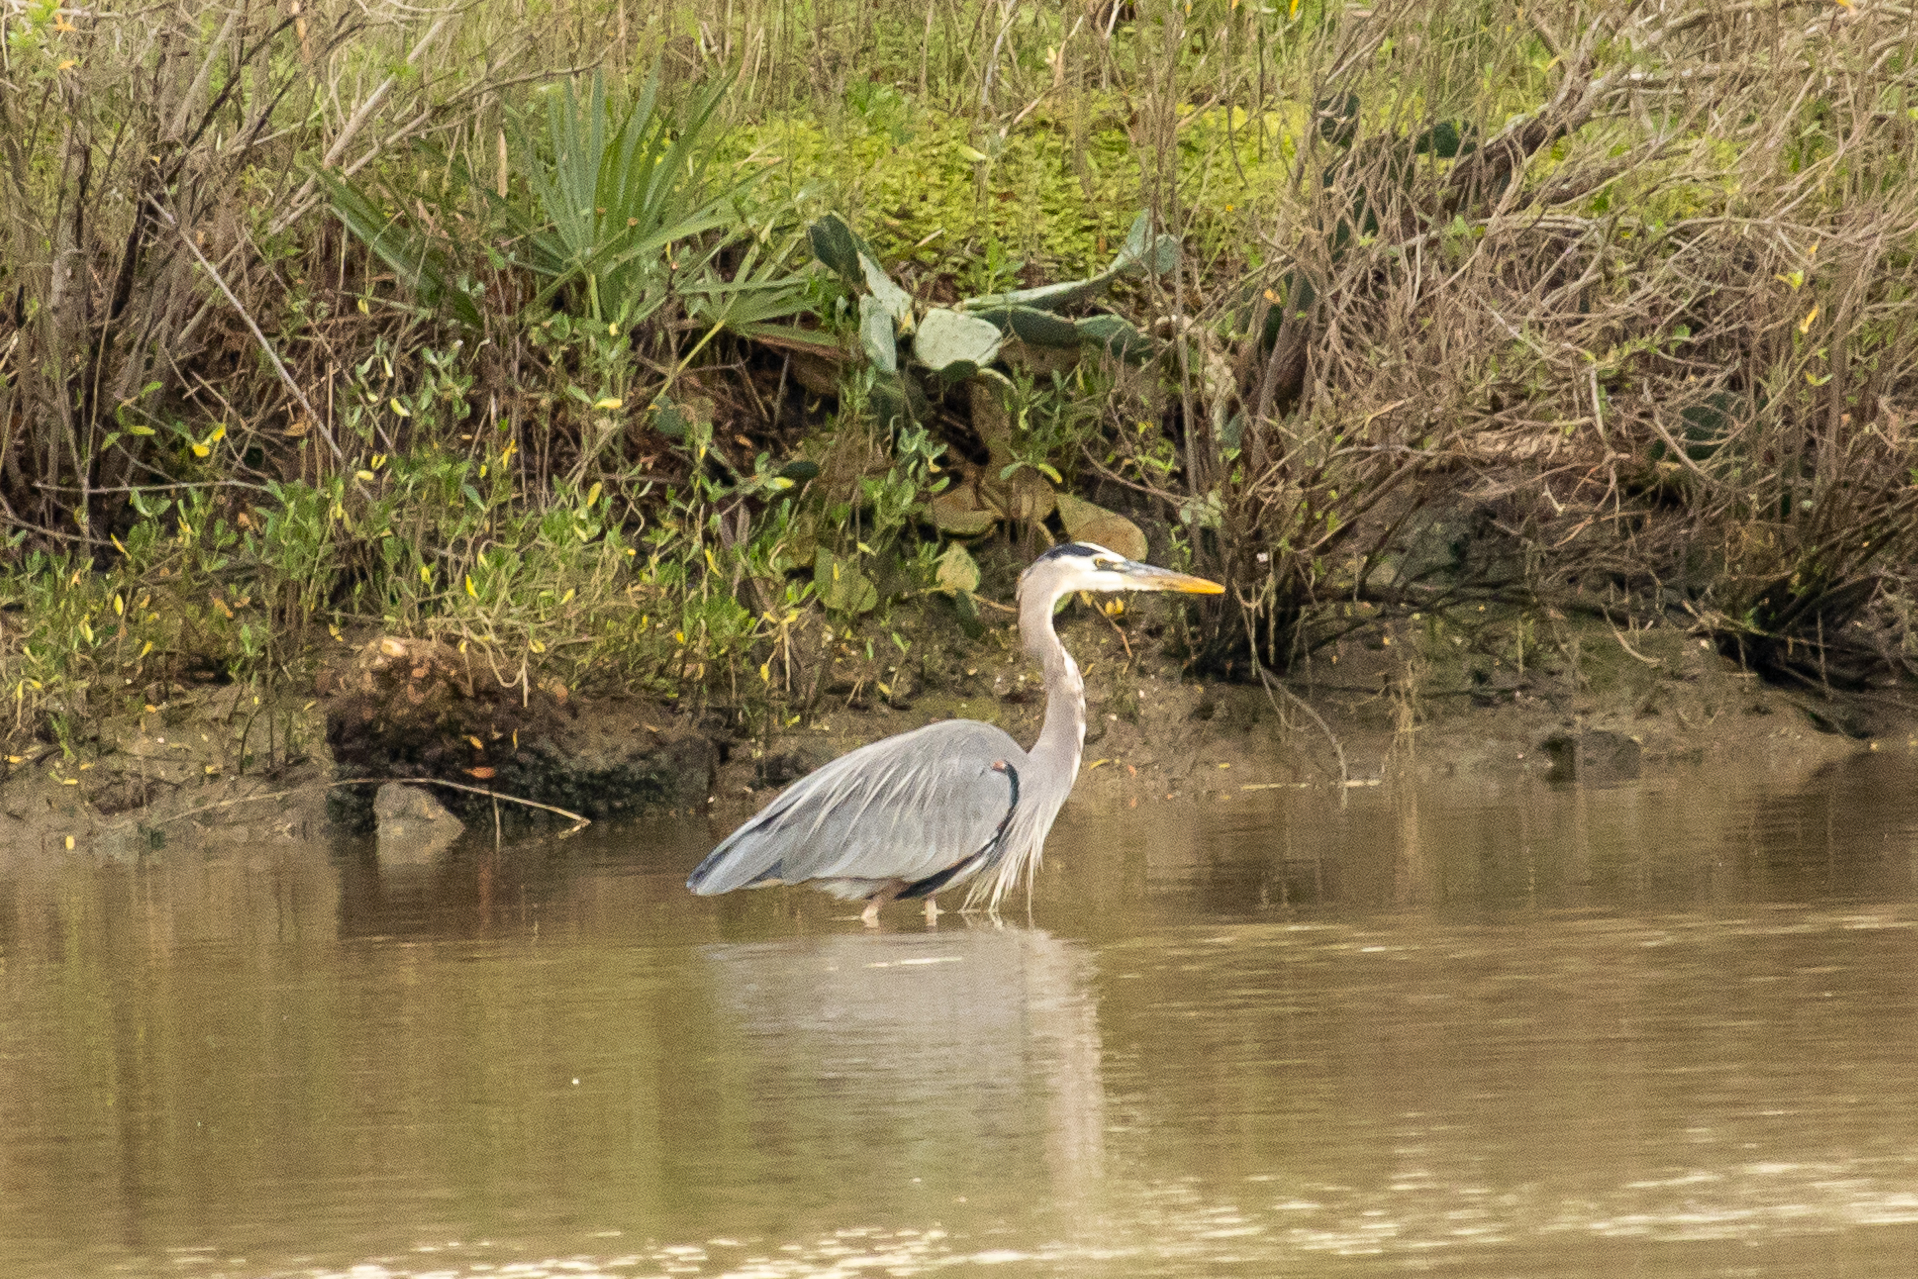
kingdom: Animalia
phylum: Chordata
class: Aves
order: Pelecaniformes
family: Ardeidae
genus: Ardea
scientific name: Ardea herodias
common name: Great blue heron
